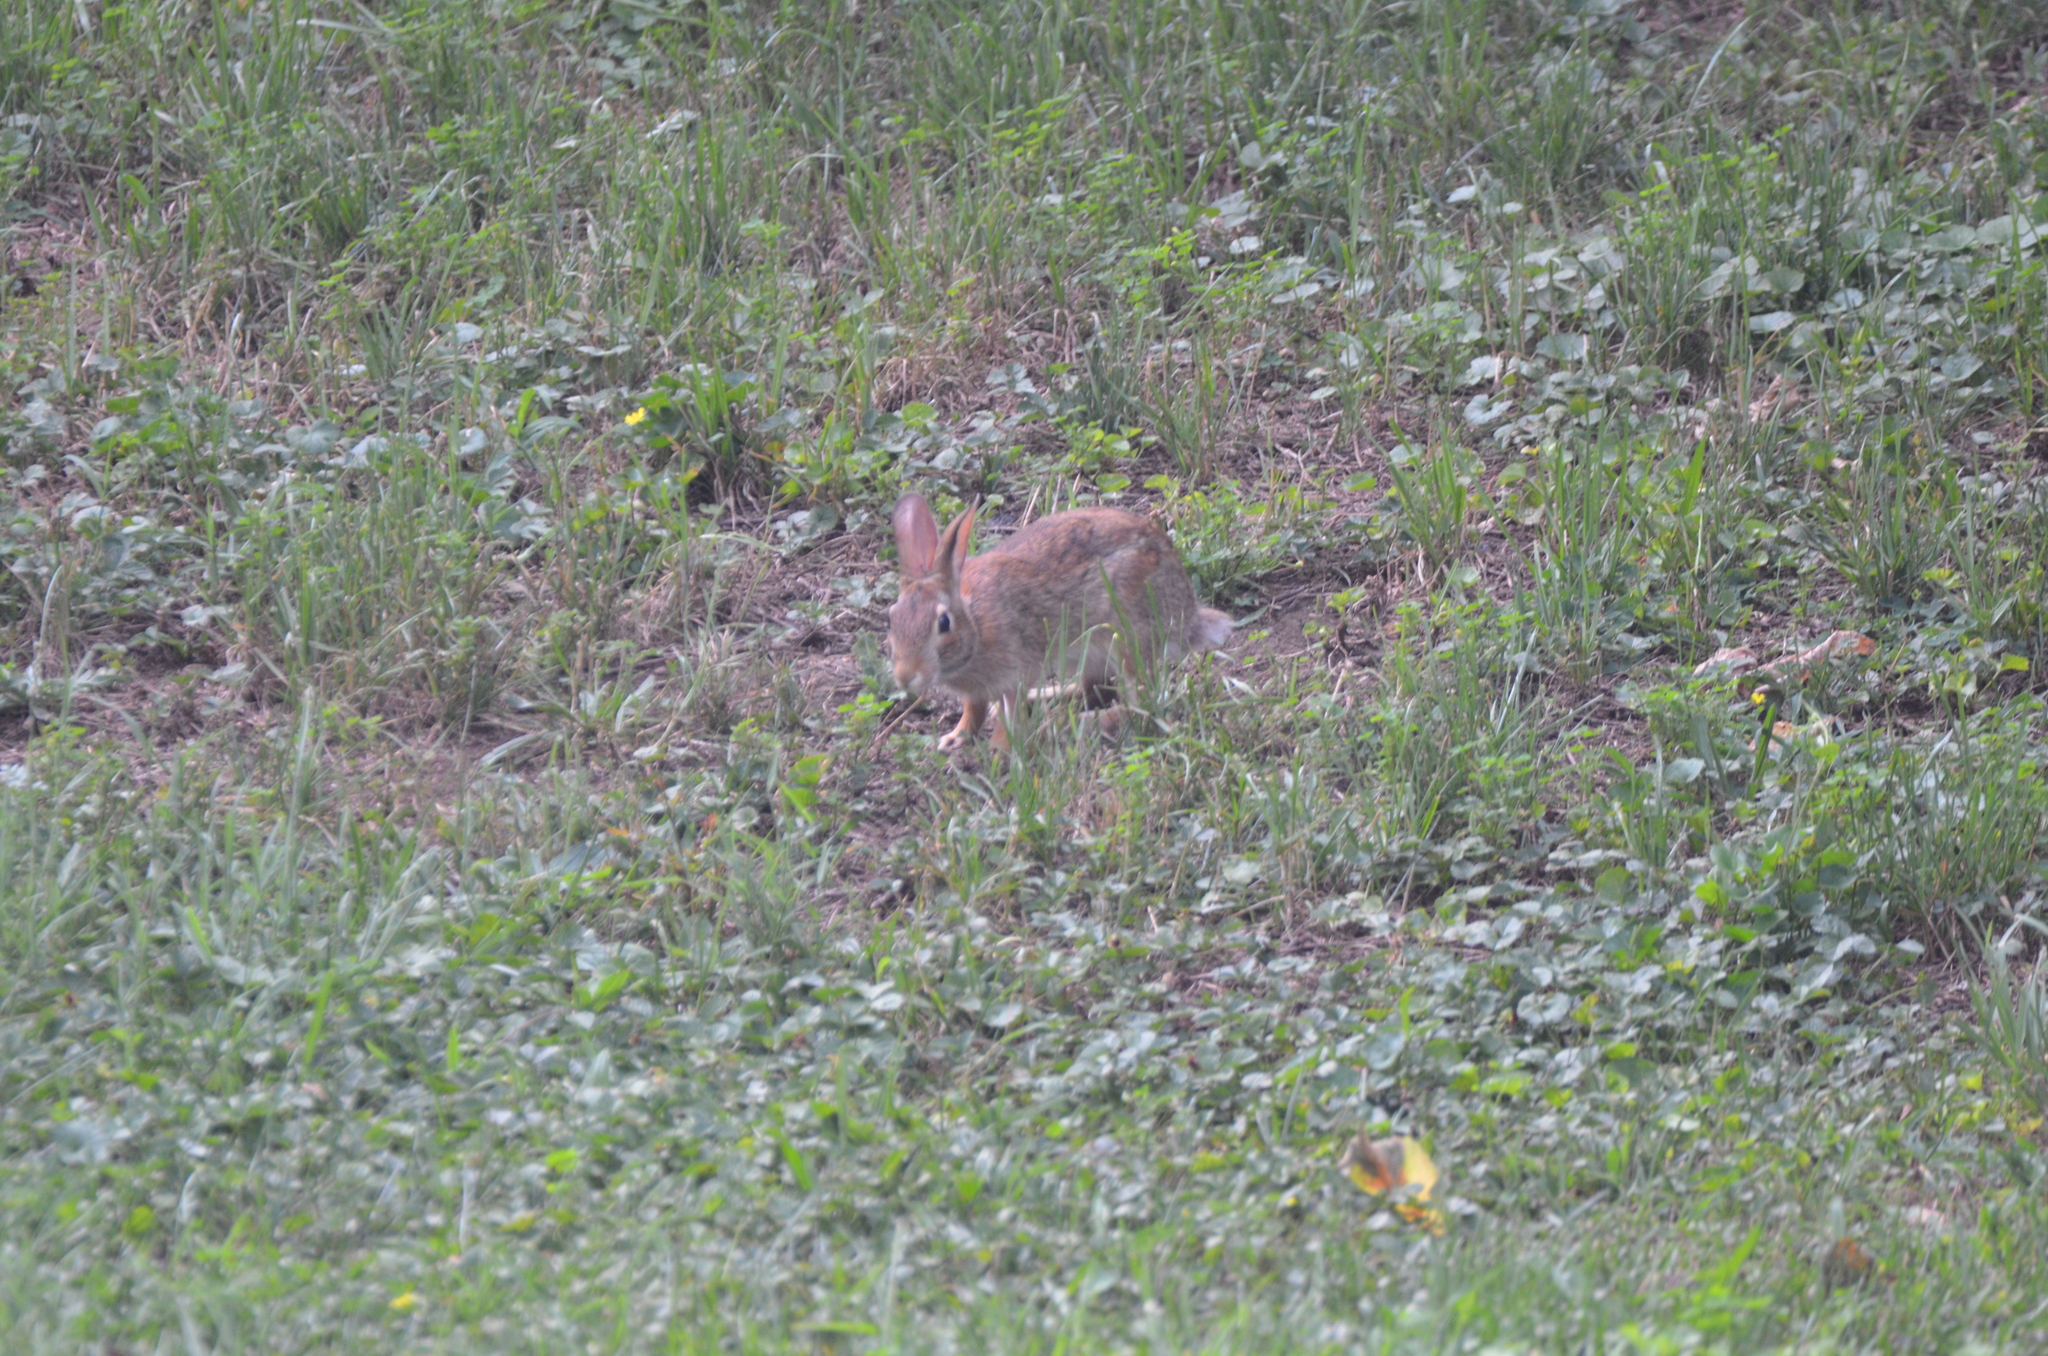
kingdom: Animalia
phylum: Chordata
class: Mammalia
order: Lagomorpha
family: Leporidae
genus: Sylvilagus
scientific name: Sylvilagus floridanus
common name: Eastern cottontail
